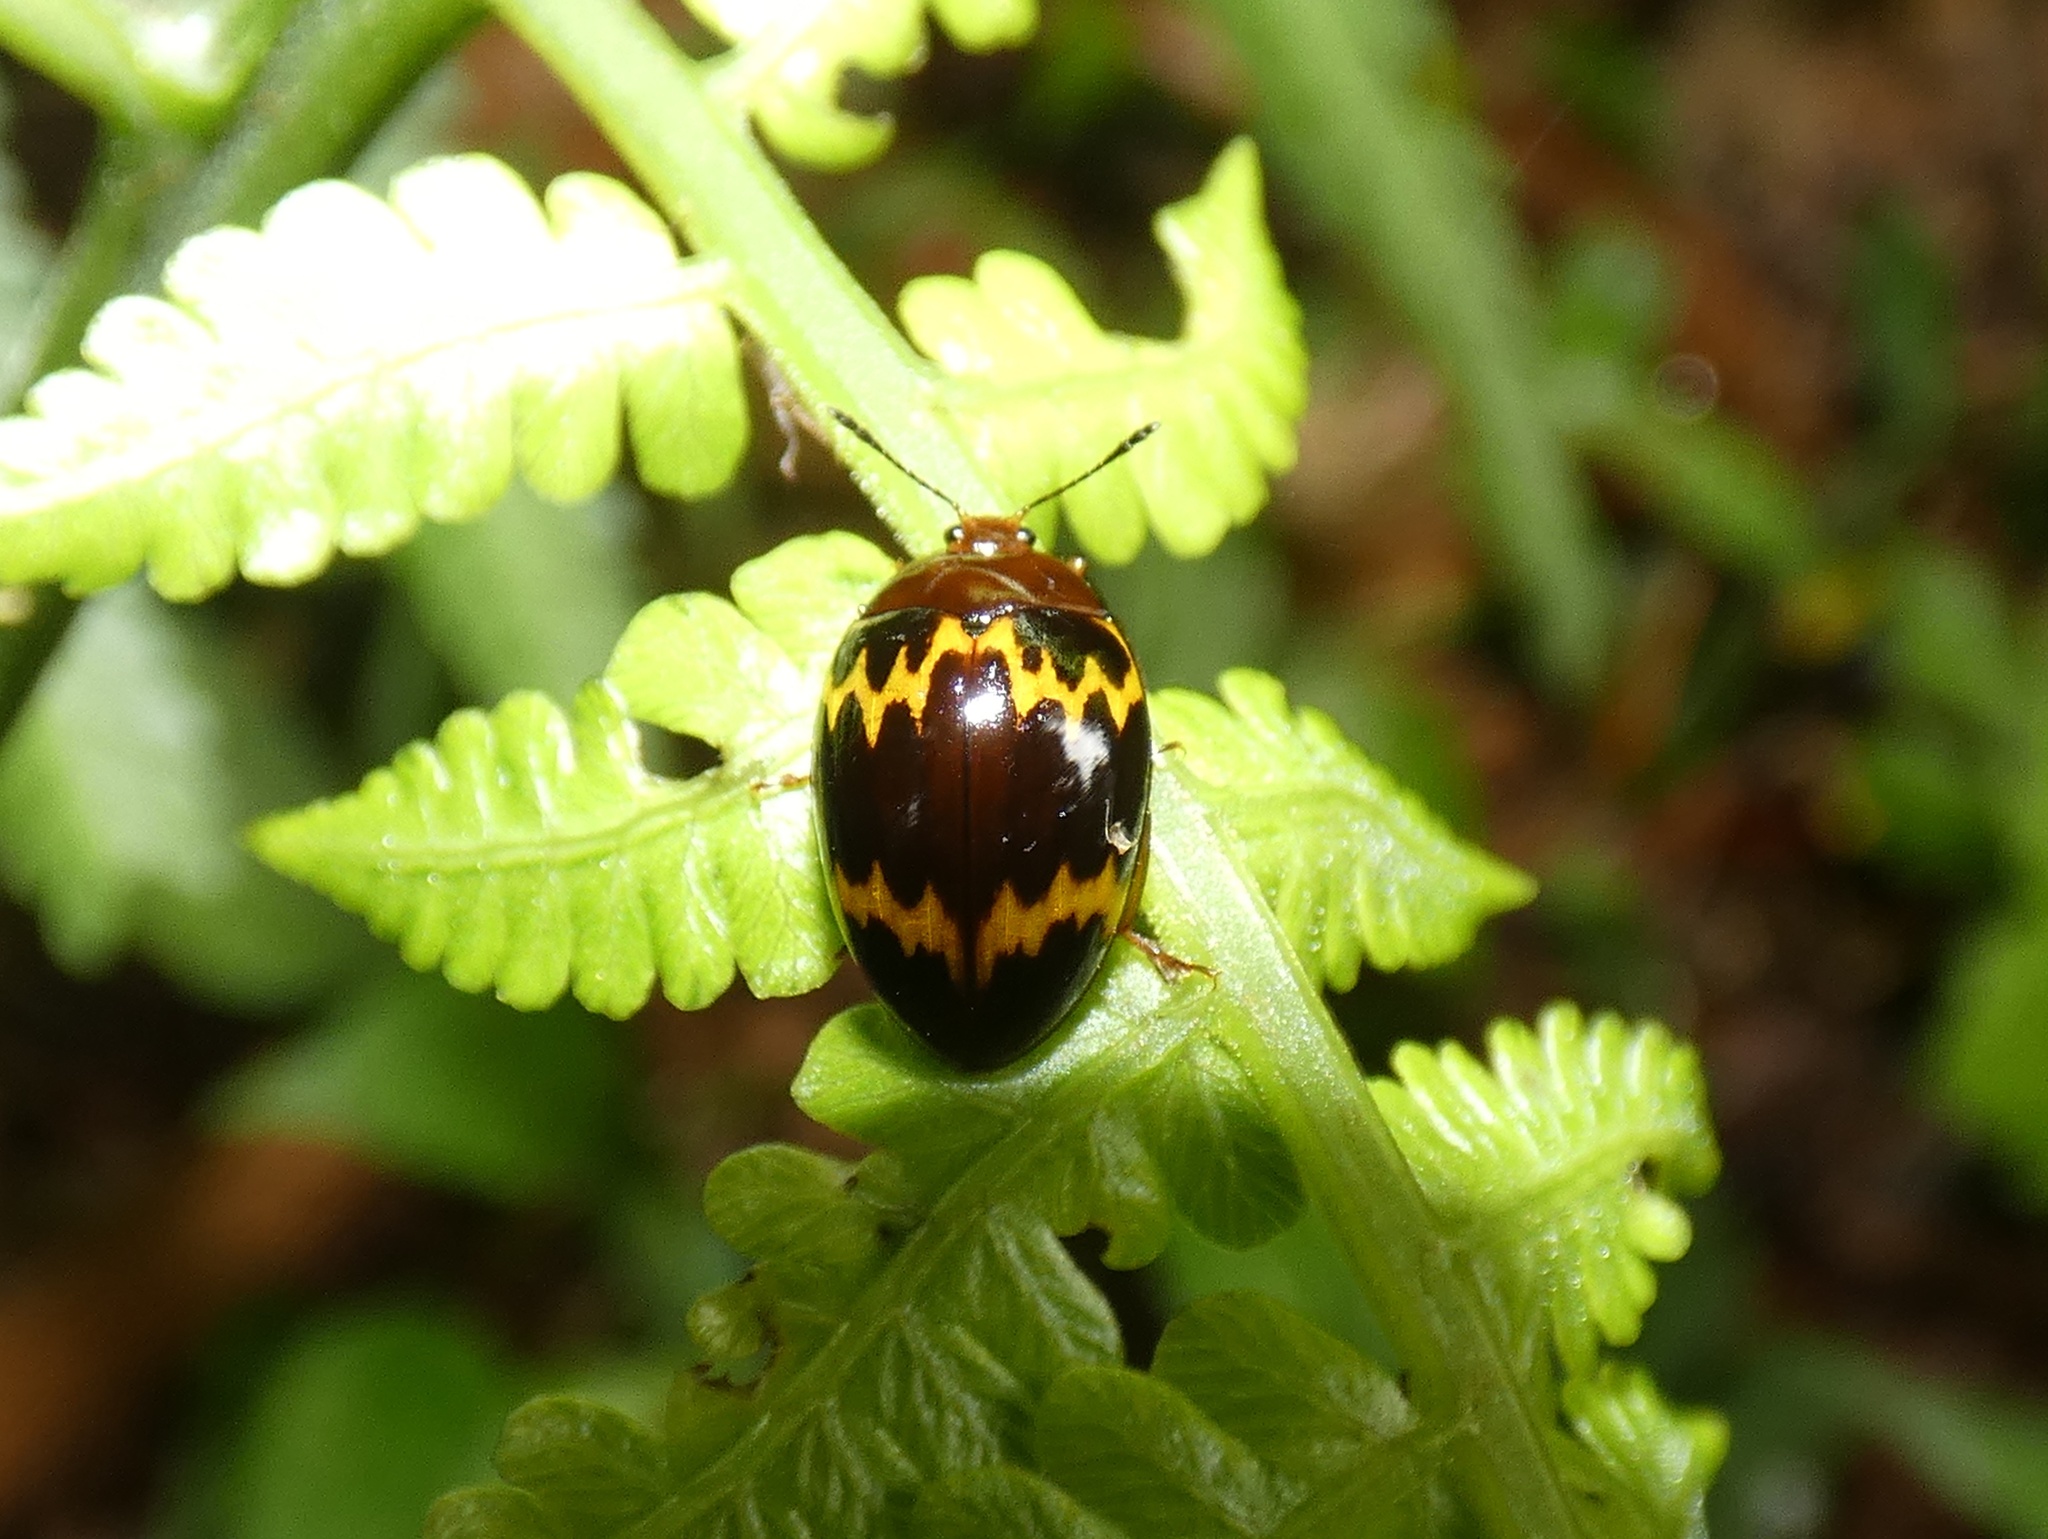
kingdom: Animalia
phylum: Arthropoda
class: Insecta
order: Coleoptera
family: Erotylidae
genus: Iphiclus
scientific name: Iphiclus
